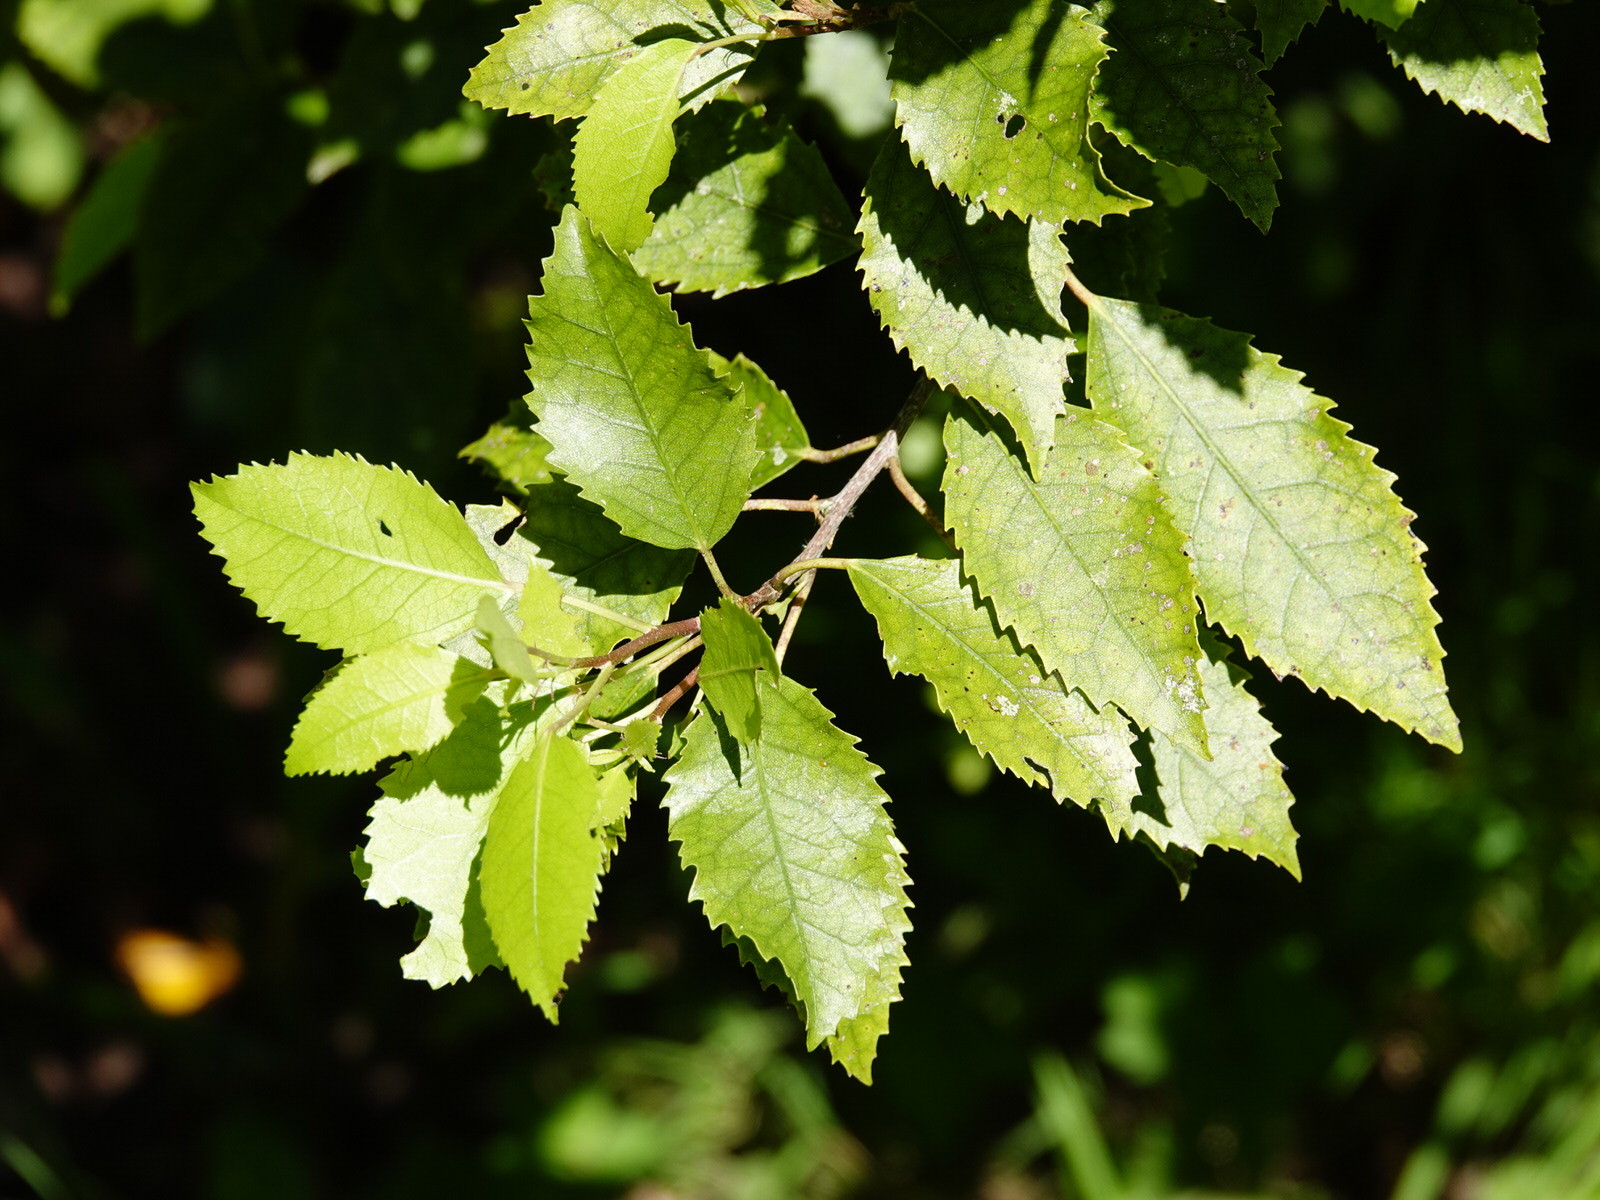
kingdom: Plantae
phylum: Tracheophyta
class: Magnoliopsida
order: Malvales
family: Malvaceae
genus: Hoheria
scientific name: Hoheria populnea
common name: Lacebark
